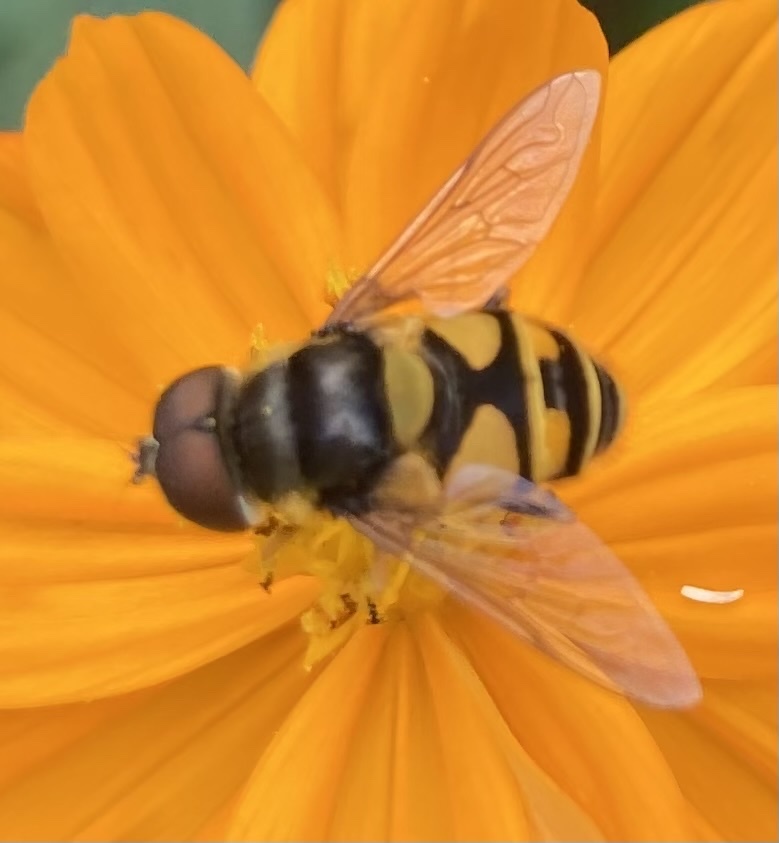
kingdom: Animalia
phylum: Arthropoda
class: Insecta
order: Diptera
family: Syrphidae
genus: Eristalis
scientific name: Eristalis transversa
